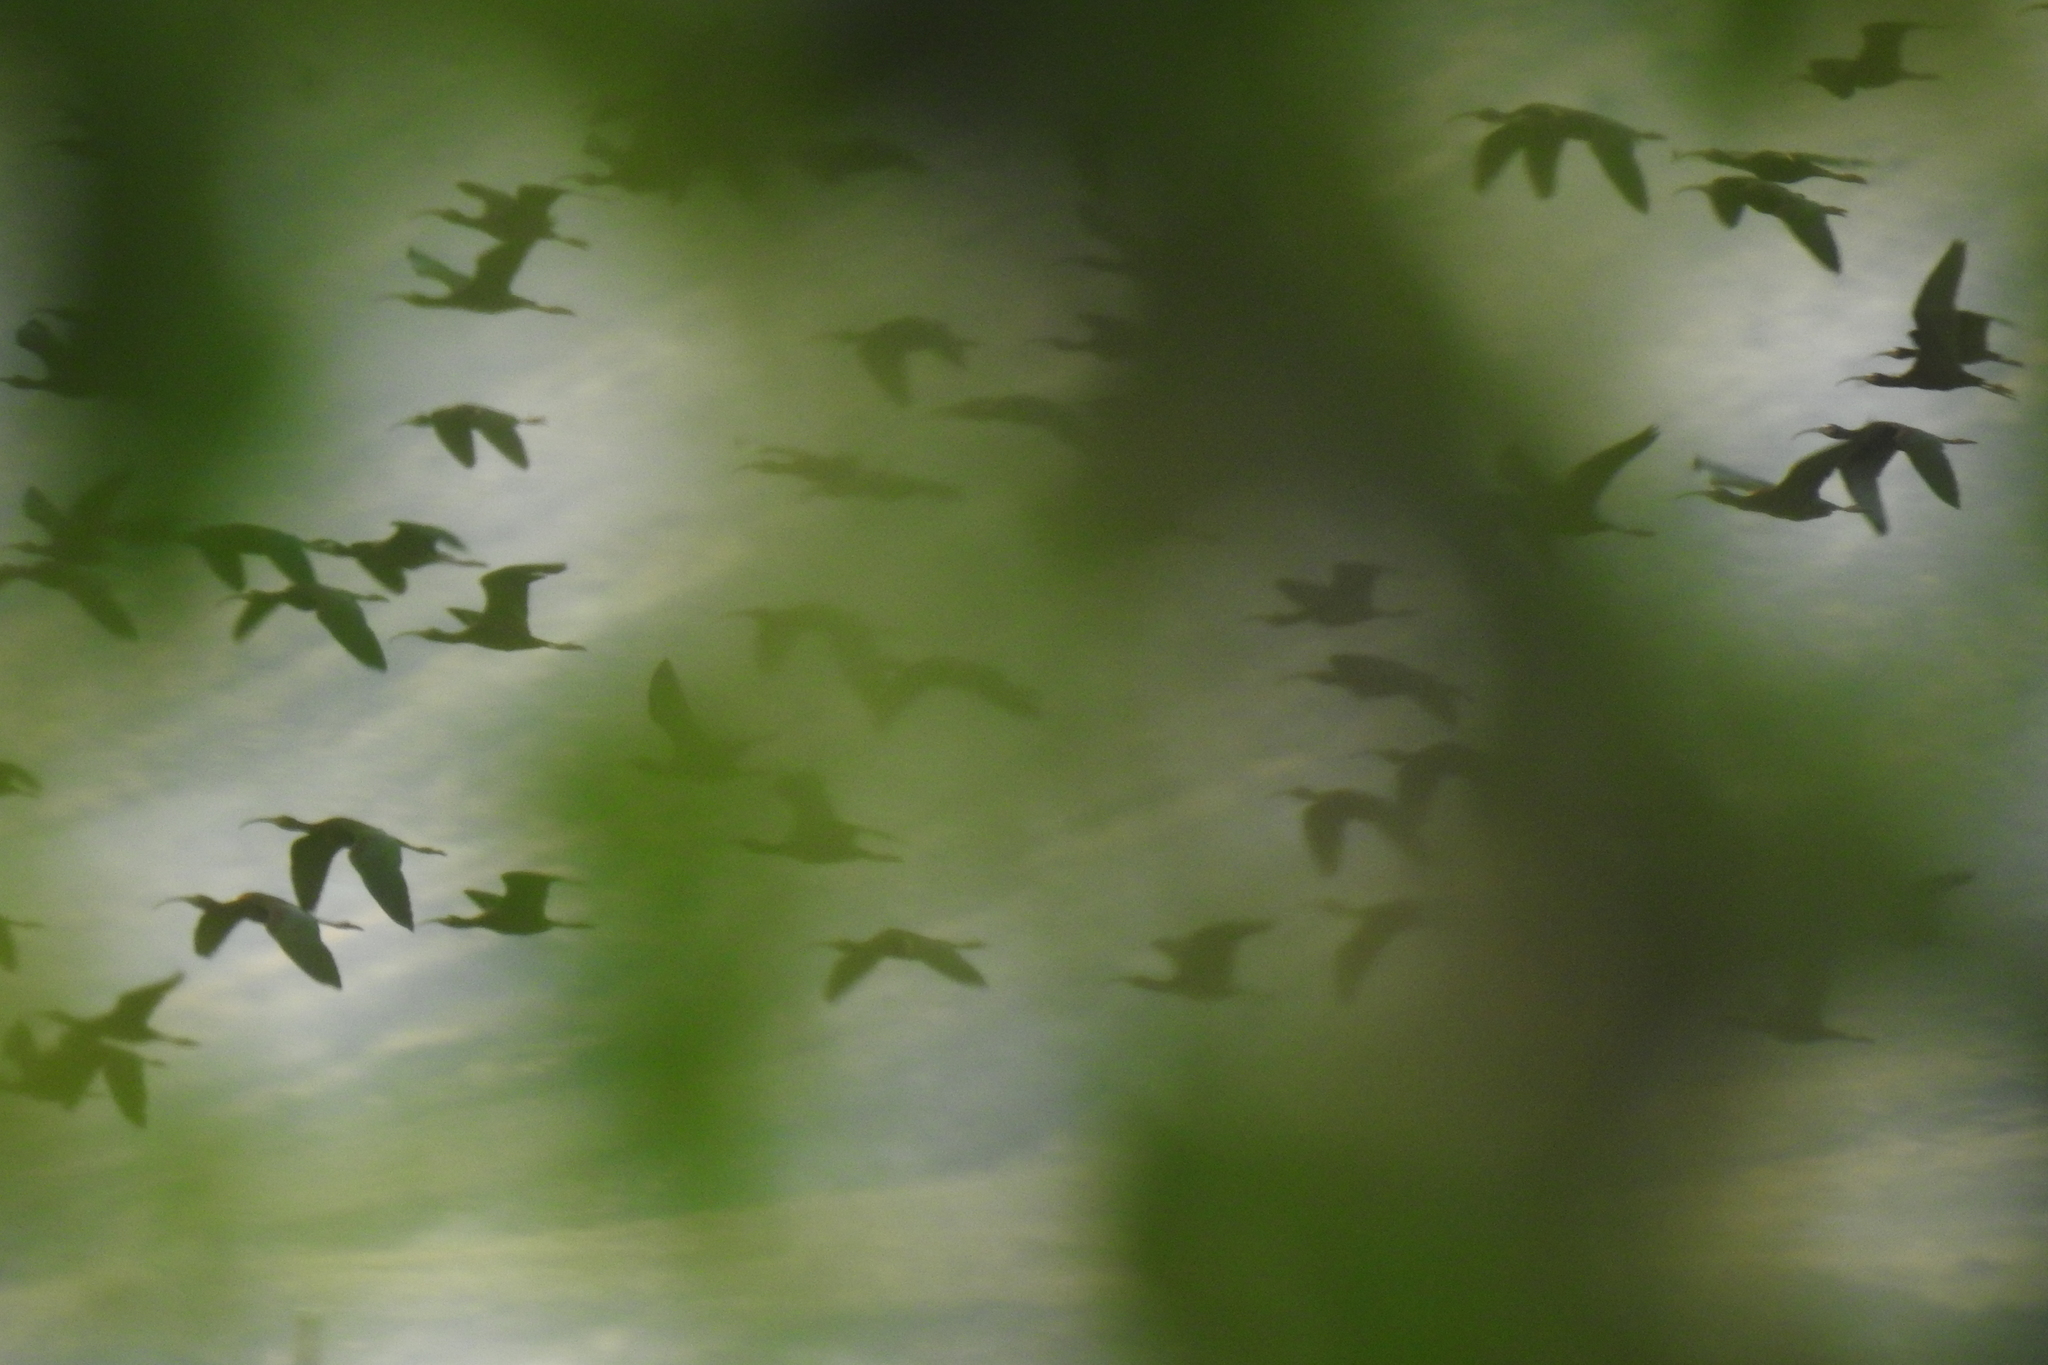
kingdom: Animalia
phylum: Chordata
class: Aves
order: Pelecaniformes
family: Threskiornithidae
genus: Plegadis
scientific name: Plegadis chihi
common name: White-faced ibis
